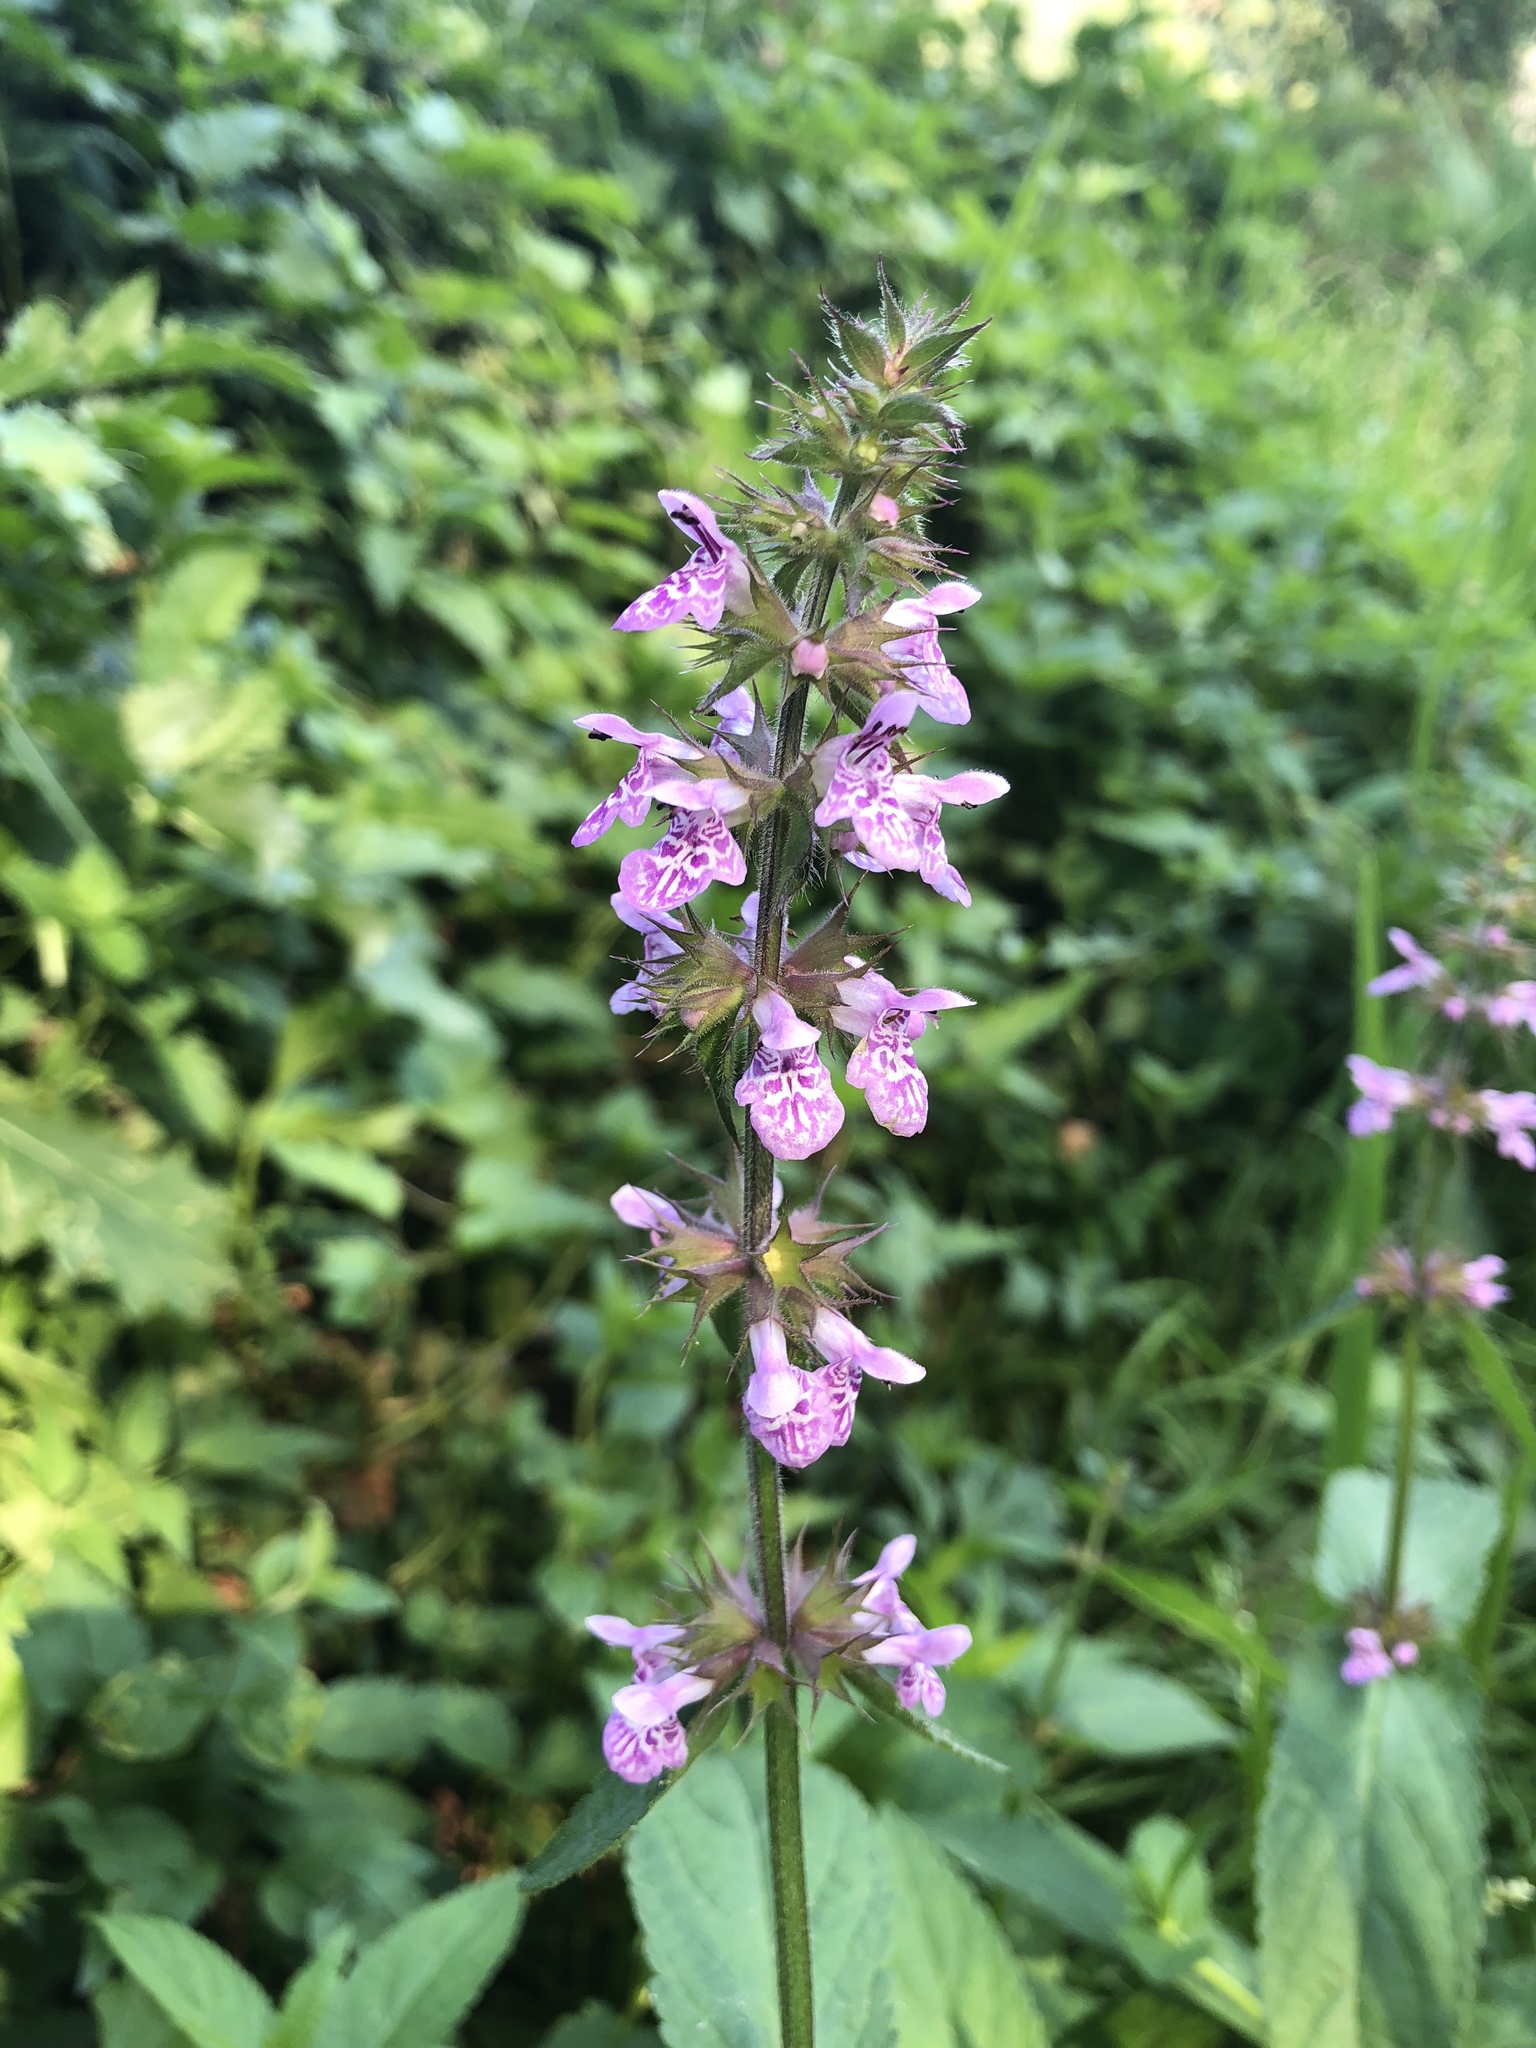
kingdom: Plantae
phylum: Tracheophyta
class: Magnoliopsida
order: Lamiales
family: Lamiaceae
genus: Stachys
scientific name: Stachys palustris
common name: Marsh woundwort
